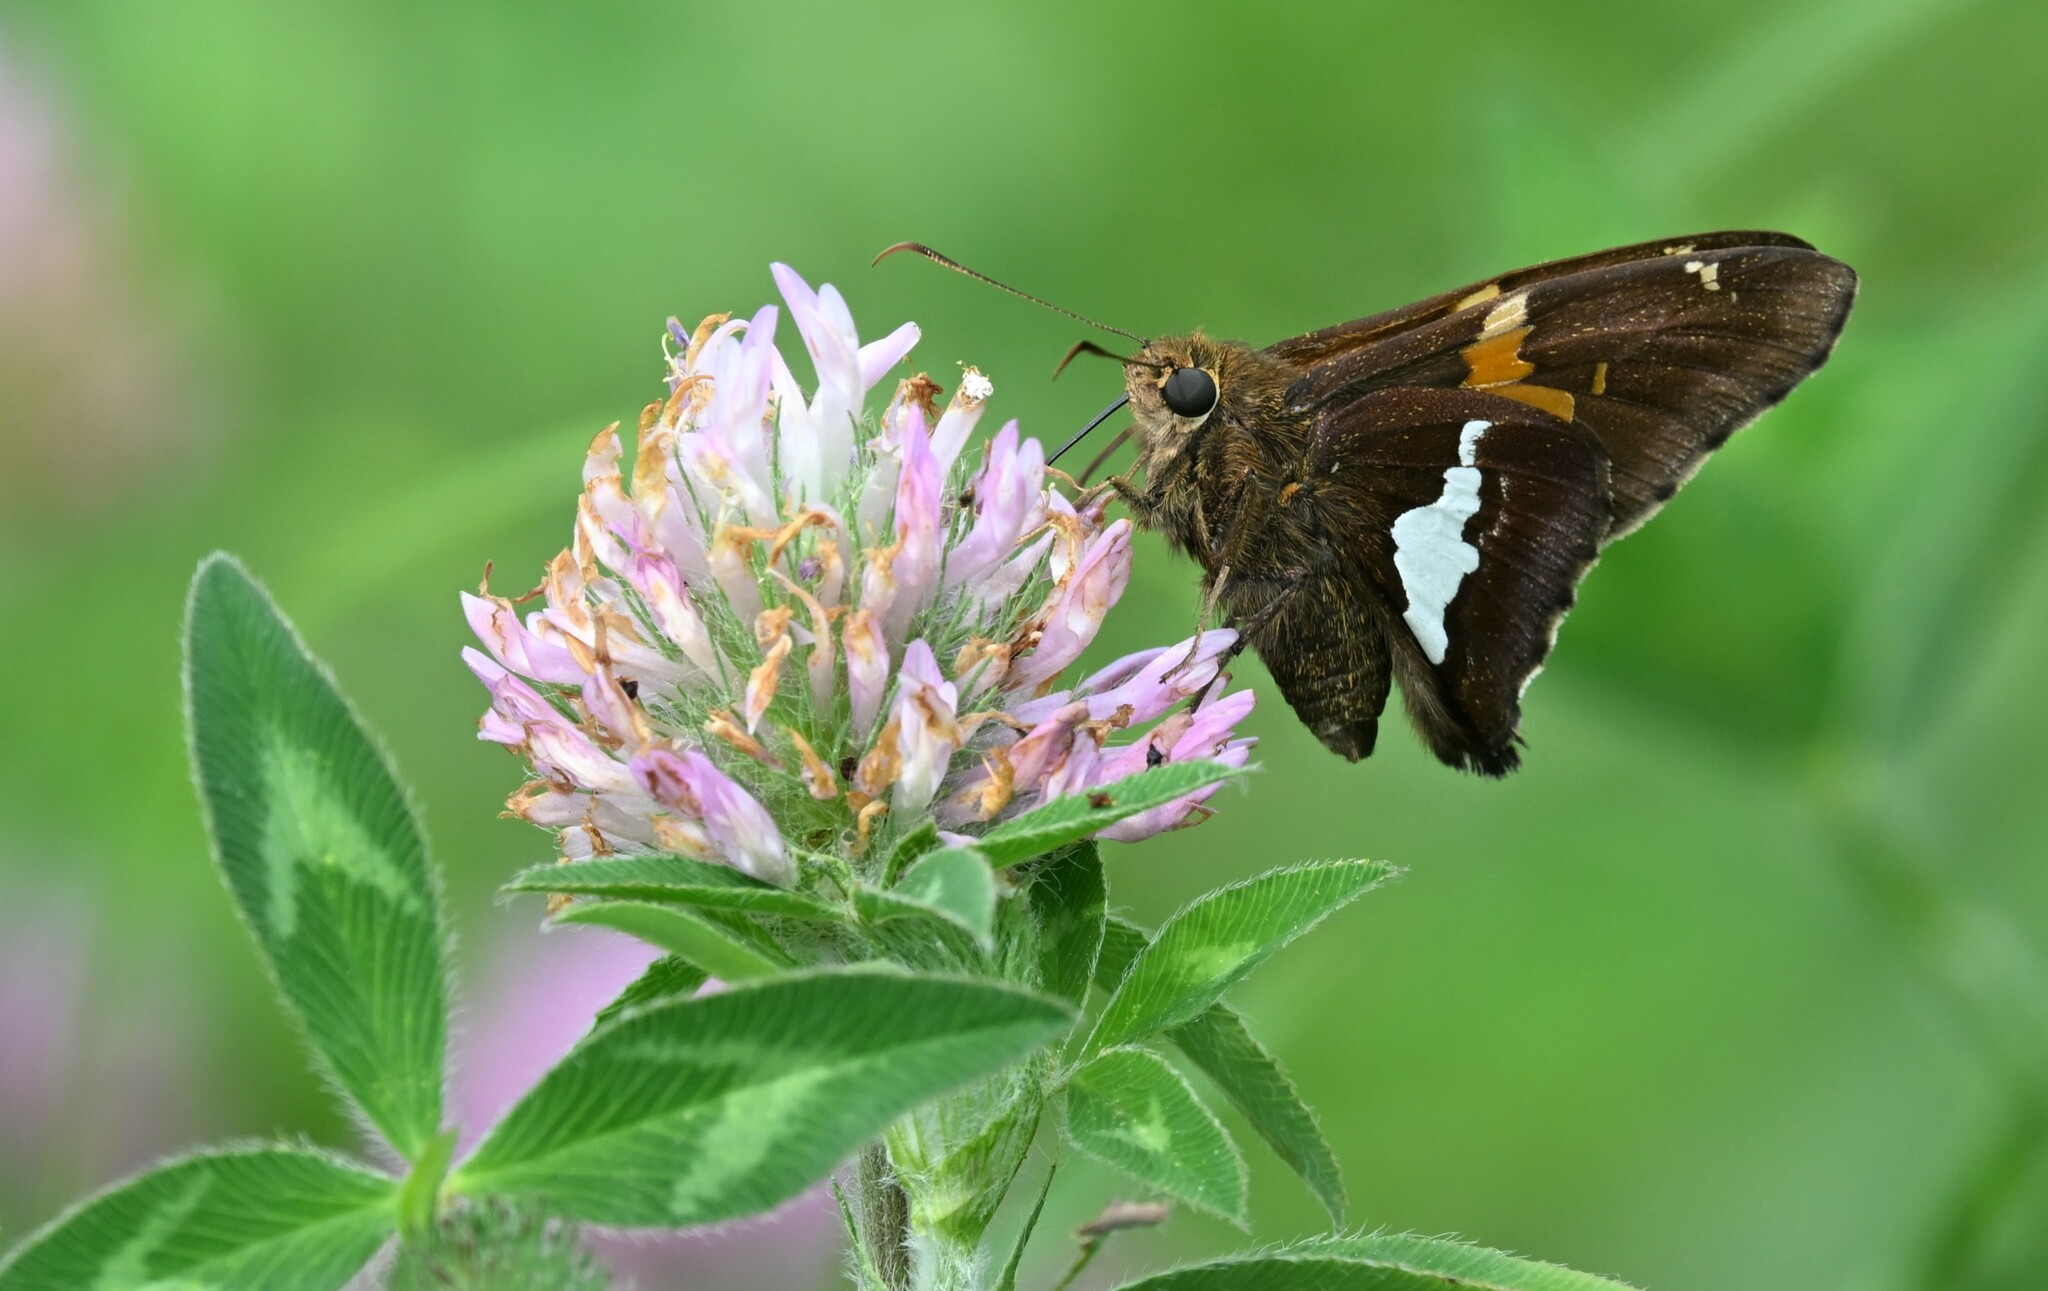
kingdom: Animalia
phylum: Arthropoda
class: Insecta
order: Lepidoptera
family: Hesperiidae
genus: Epargyreus
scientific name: Epargyreus clarus
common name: Silver-spotted skipper
